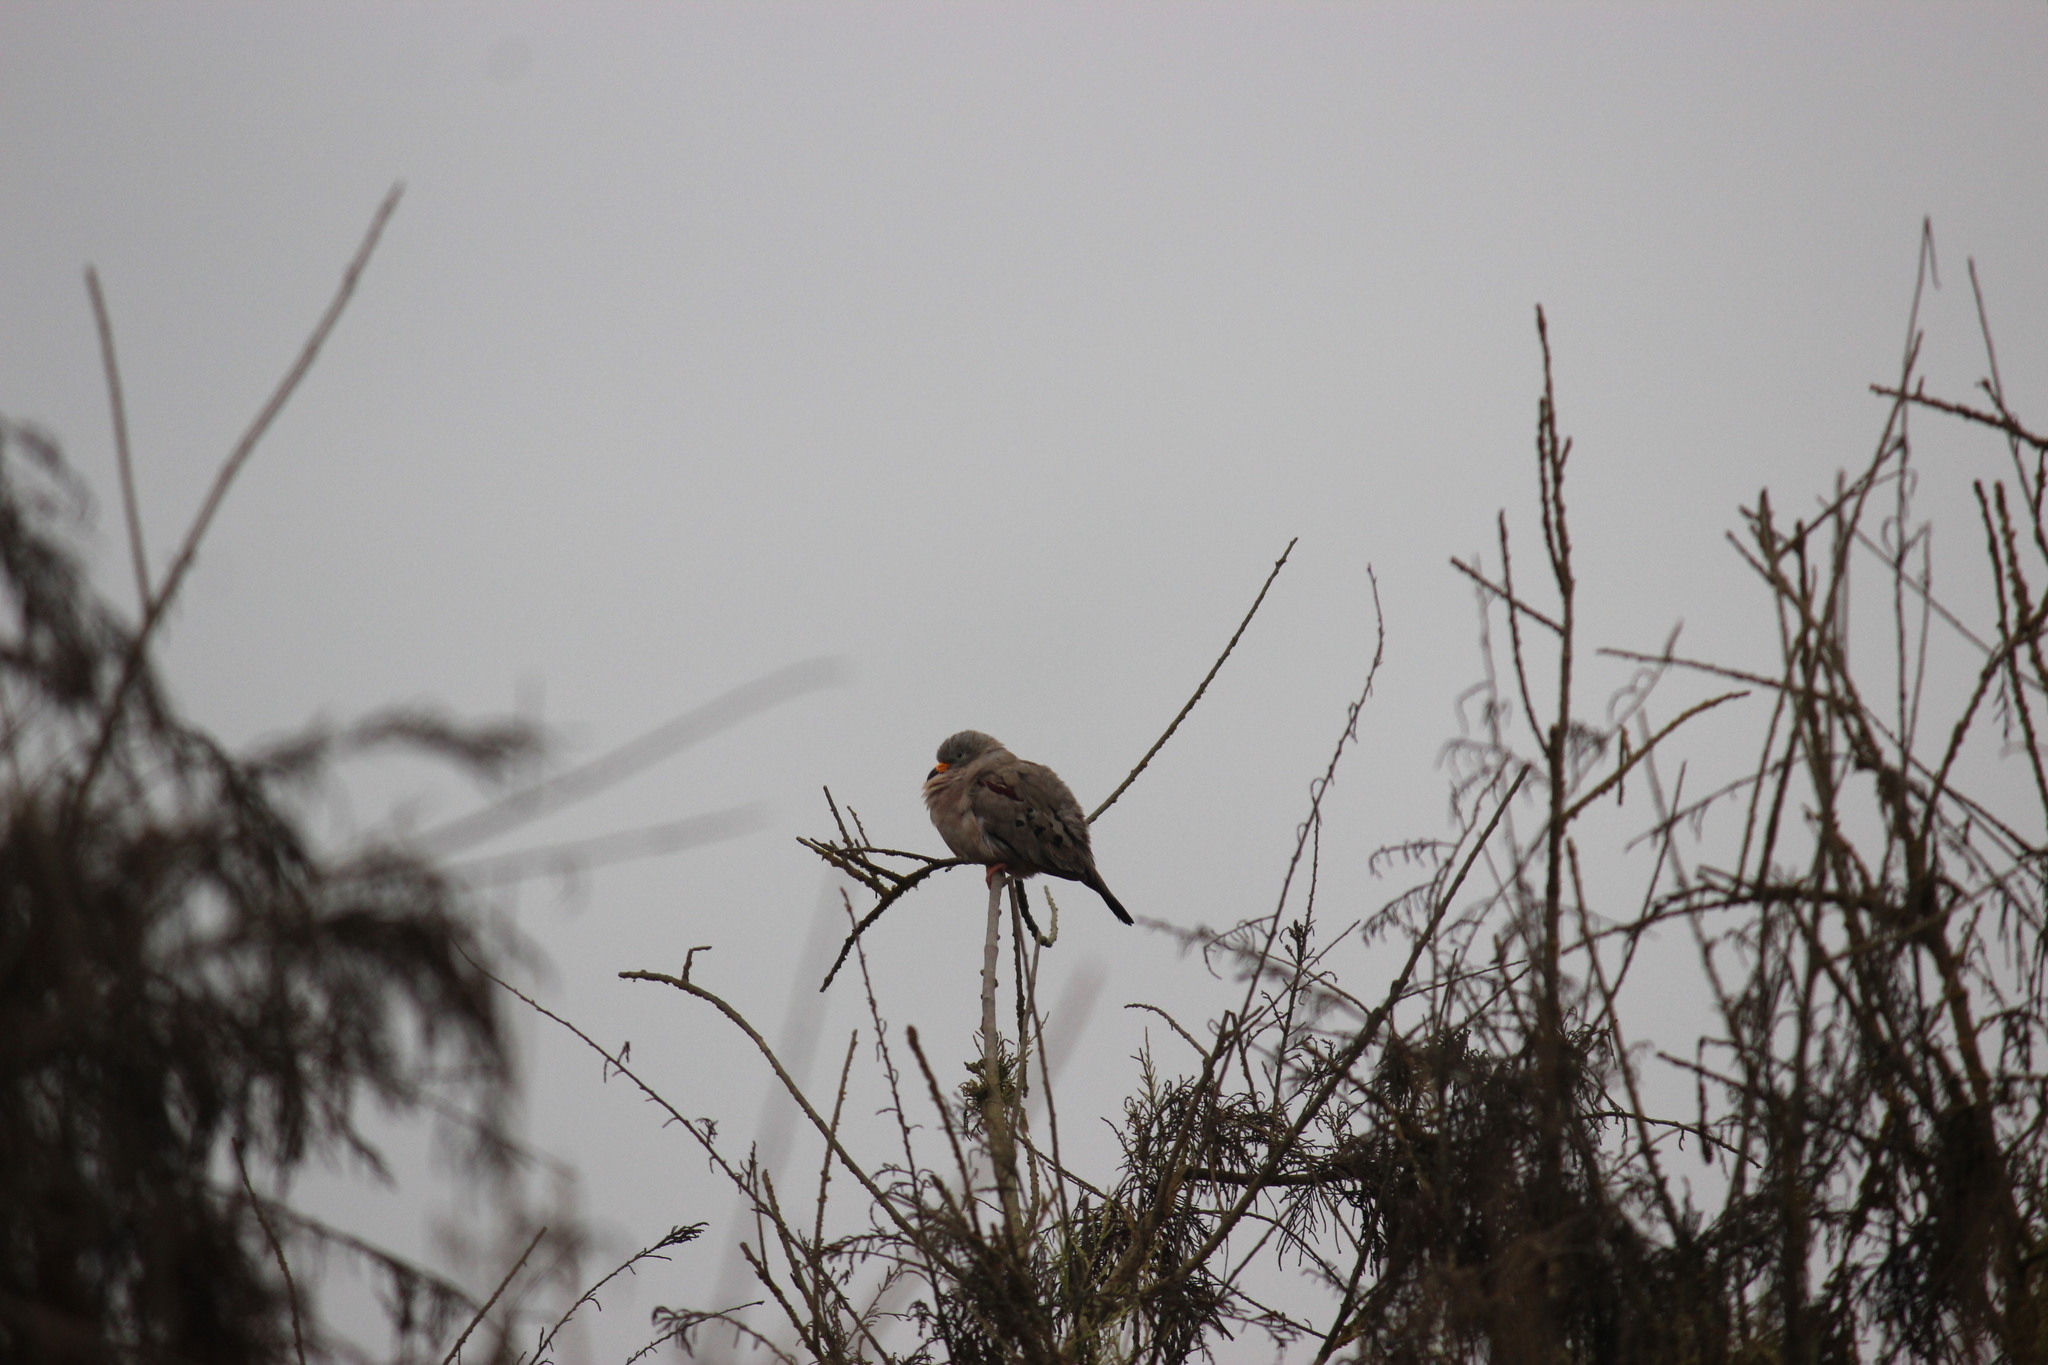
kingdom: Animalia
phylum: Chordata
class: Aves
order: Columbiformes
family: Columbidae
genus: Columbina
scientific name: Columbina cruziana
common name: Croaking ground dove
